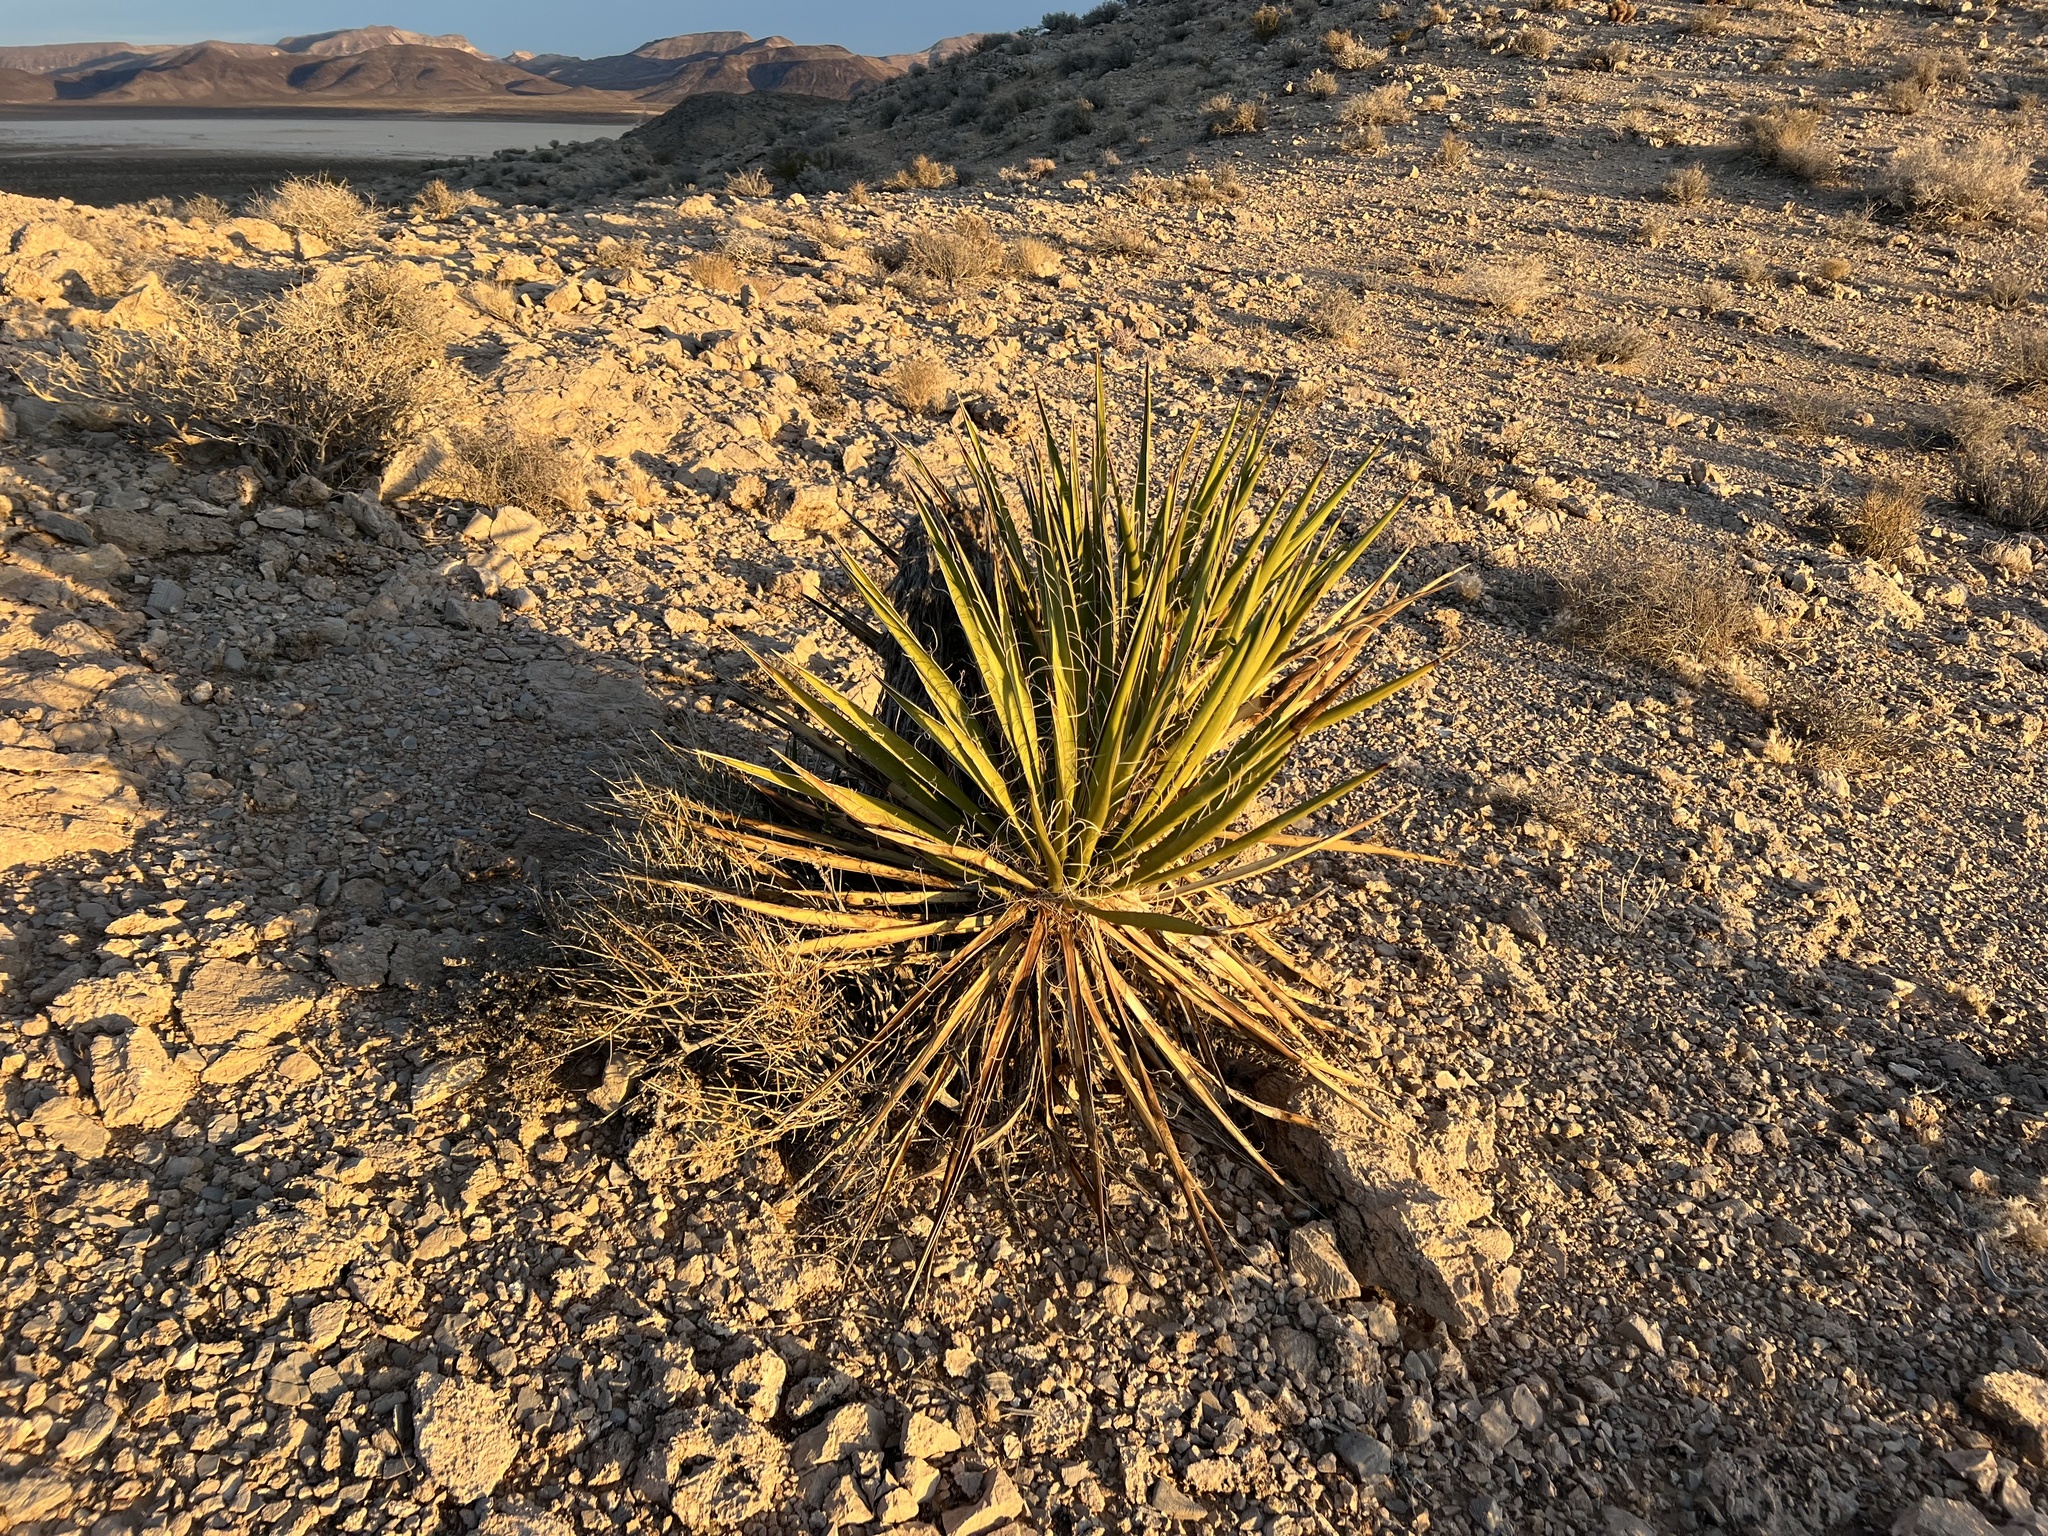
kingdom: Plantae
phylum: Tracheophyta
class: Liliopsida
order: Asparagales
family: Asparagaceae
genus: Yucca
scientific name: Yucca schidigera
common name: Mojave yucca
